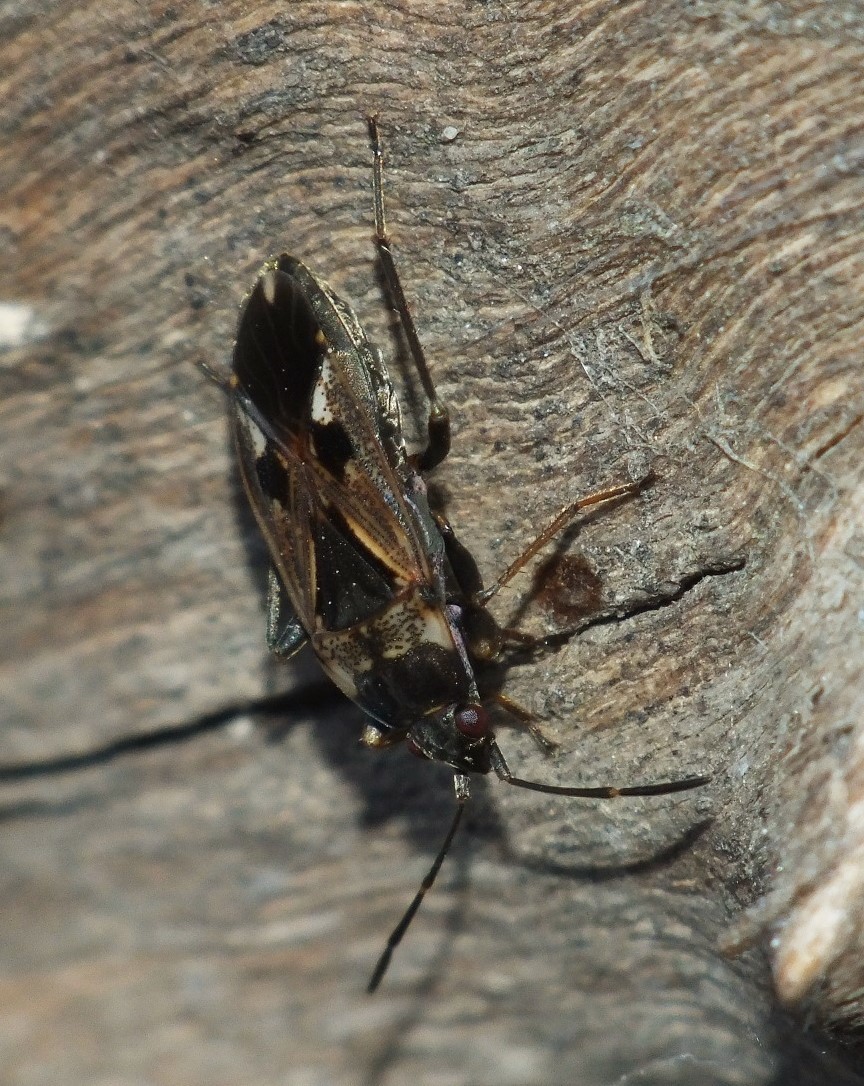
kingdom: Animalia
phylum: Arthropoda
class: Insecta
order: Hemiptera
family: Rhyparochromidae
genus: Rhyparochromus
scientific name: Rhyparochromus vulgaris
